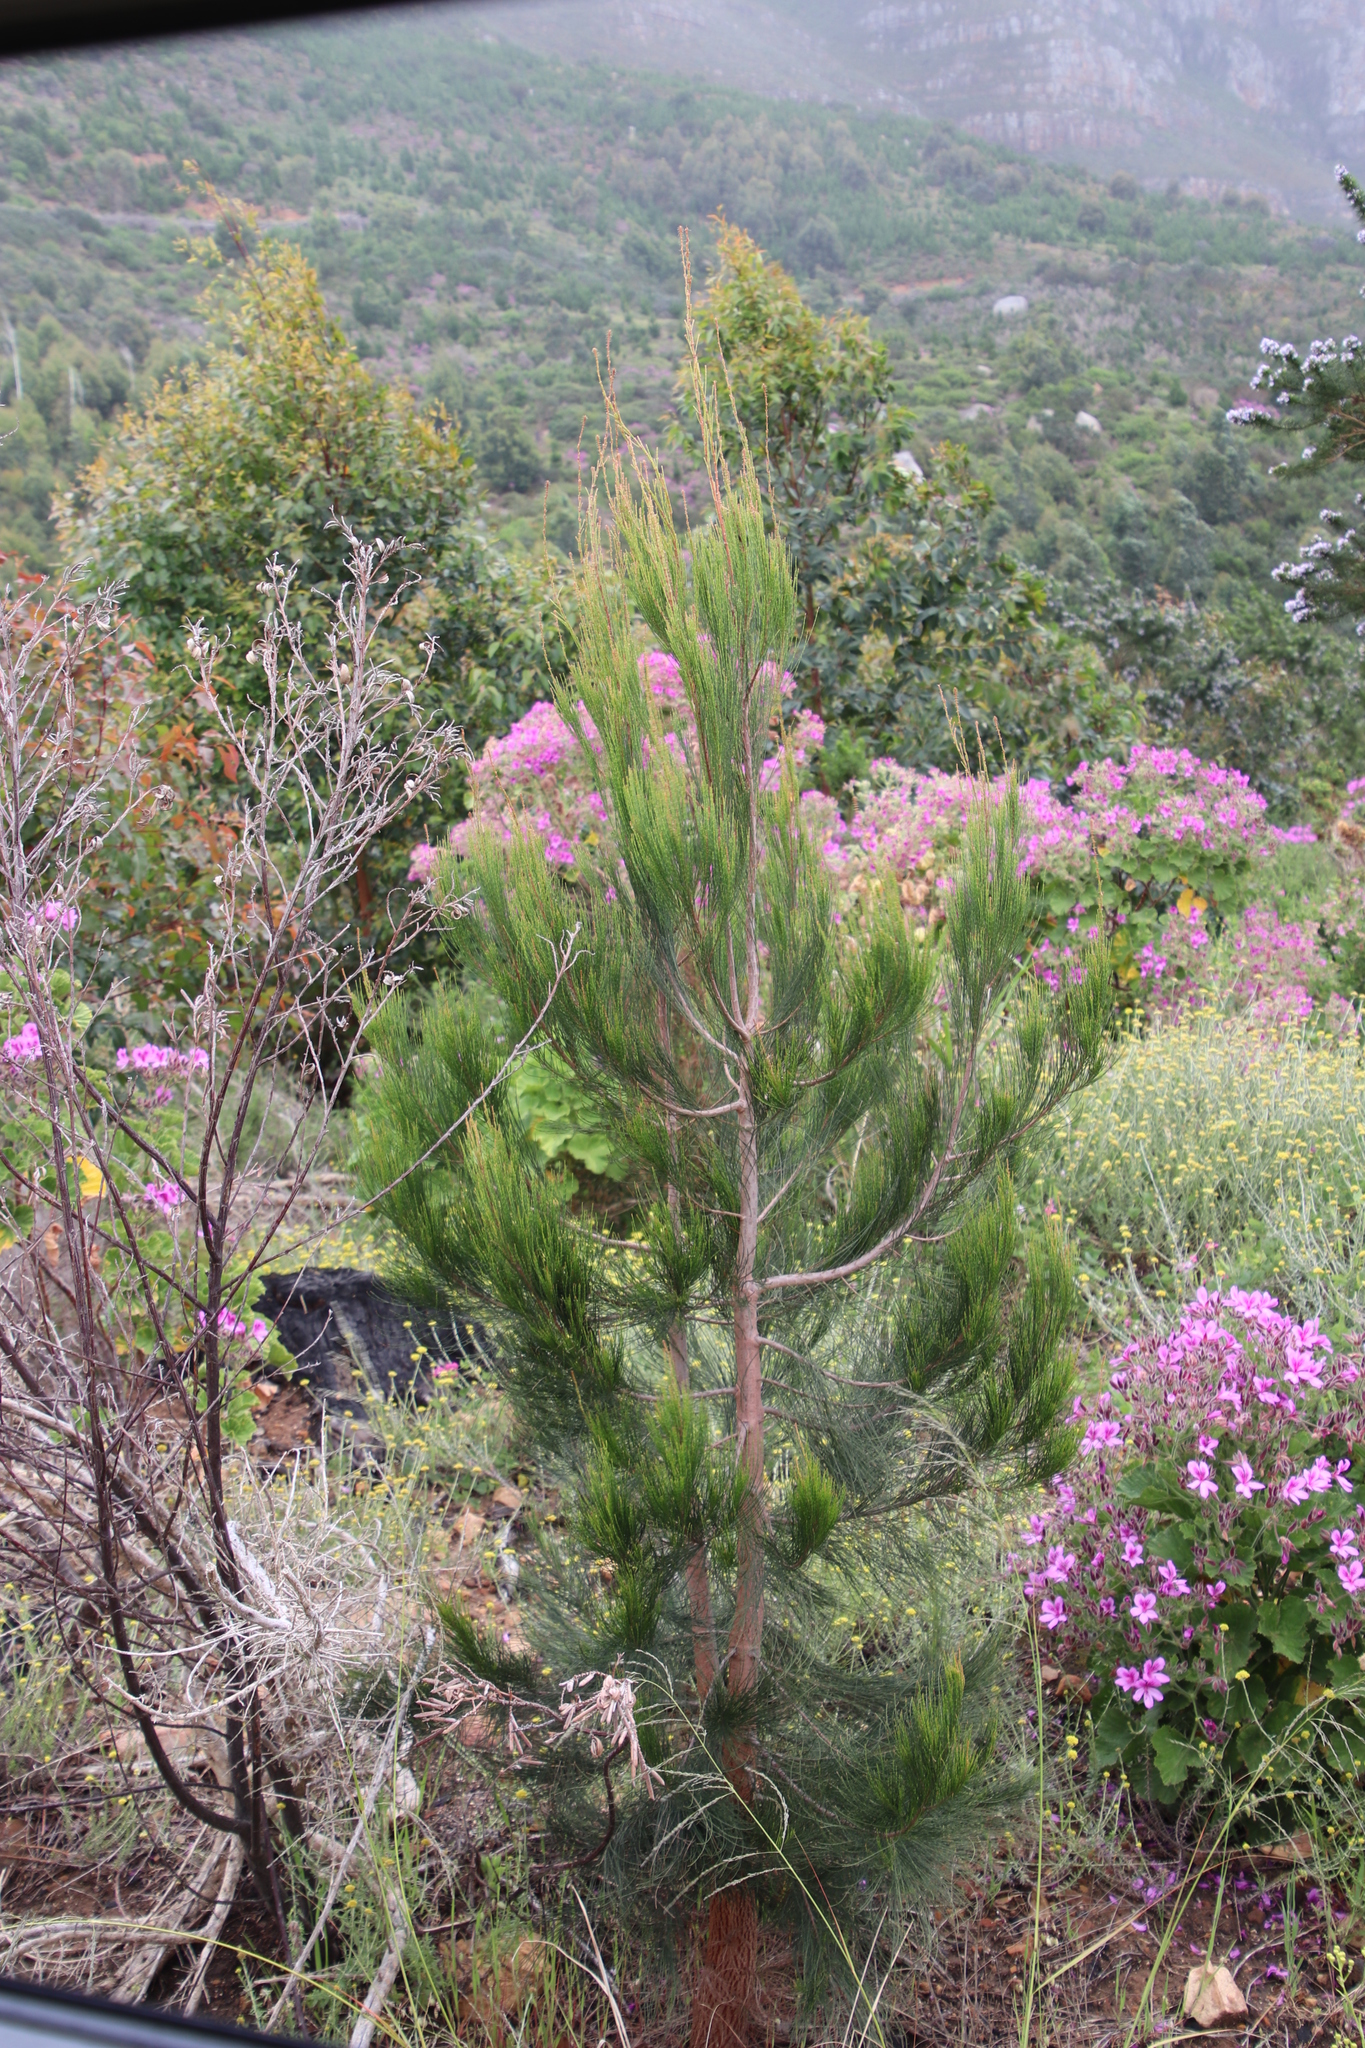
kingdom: Plantae
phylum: Tracheophyta
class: Magnoliopsida
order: Fagales
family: Casuarinaceae
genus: Allocasuarina
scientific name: Allocasuarina littoralis
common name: Black she-oak
